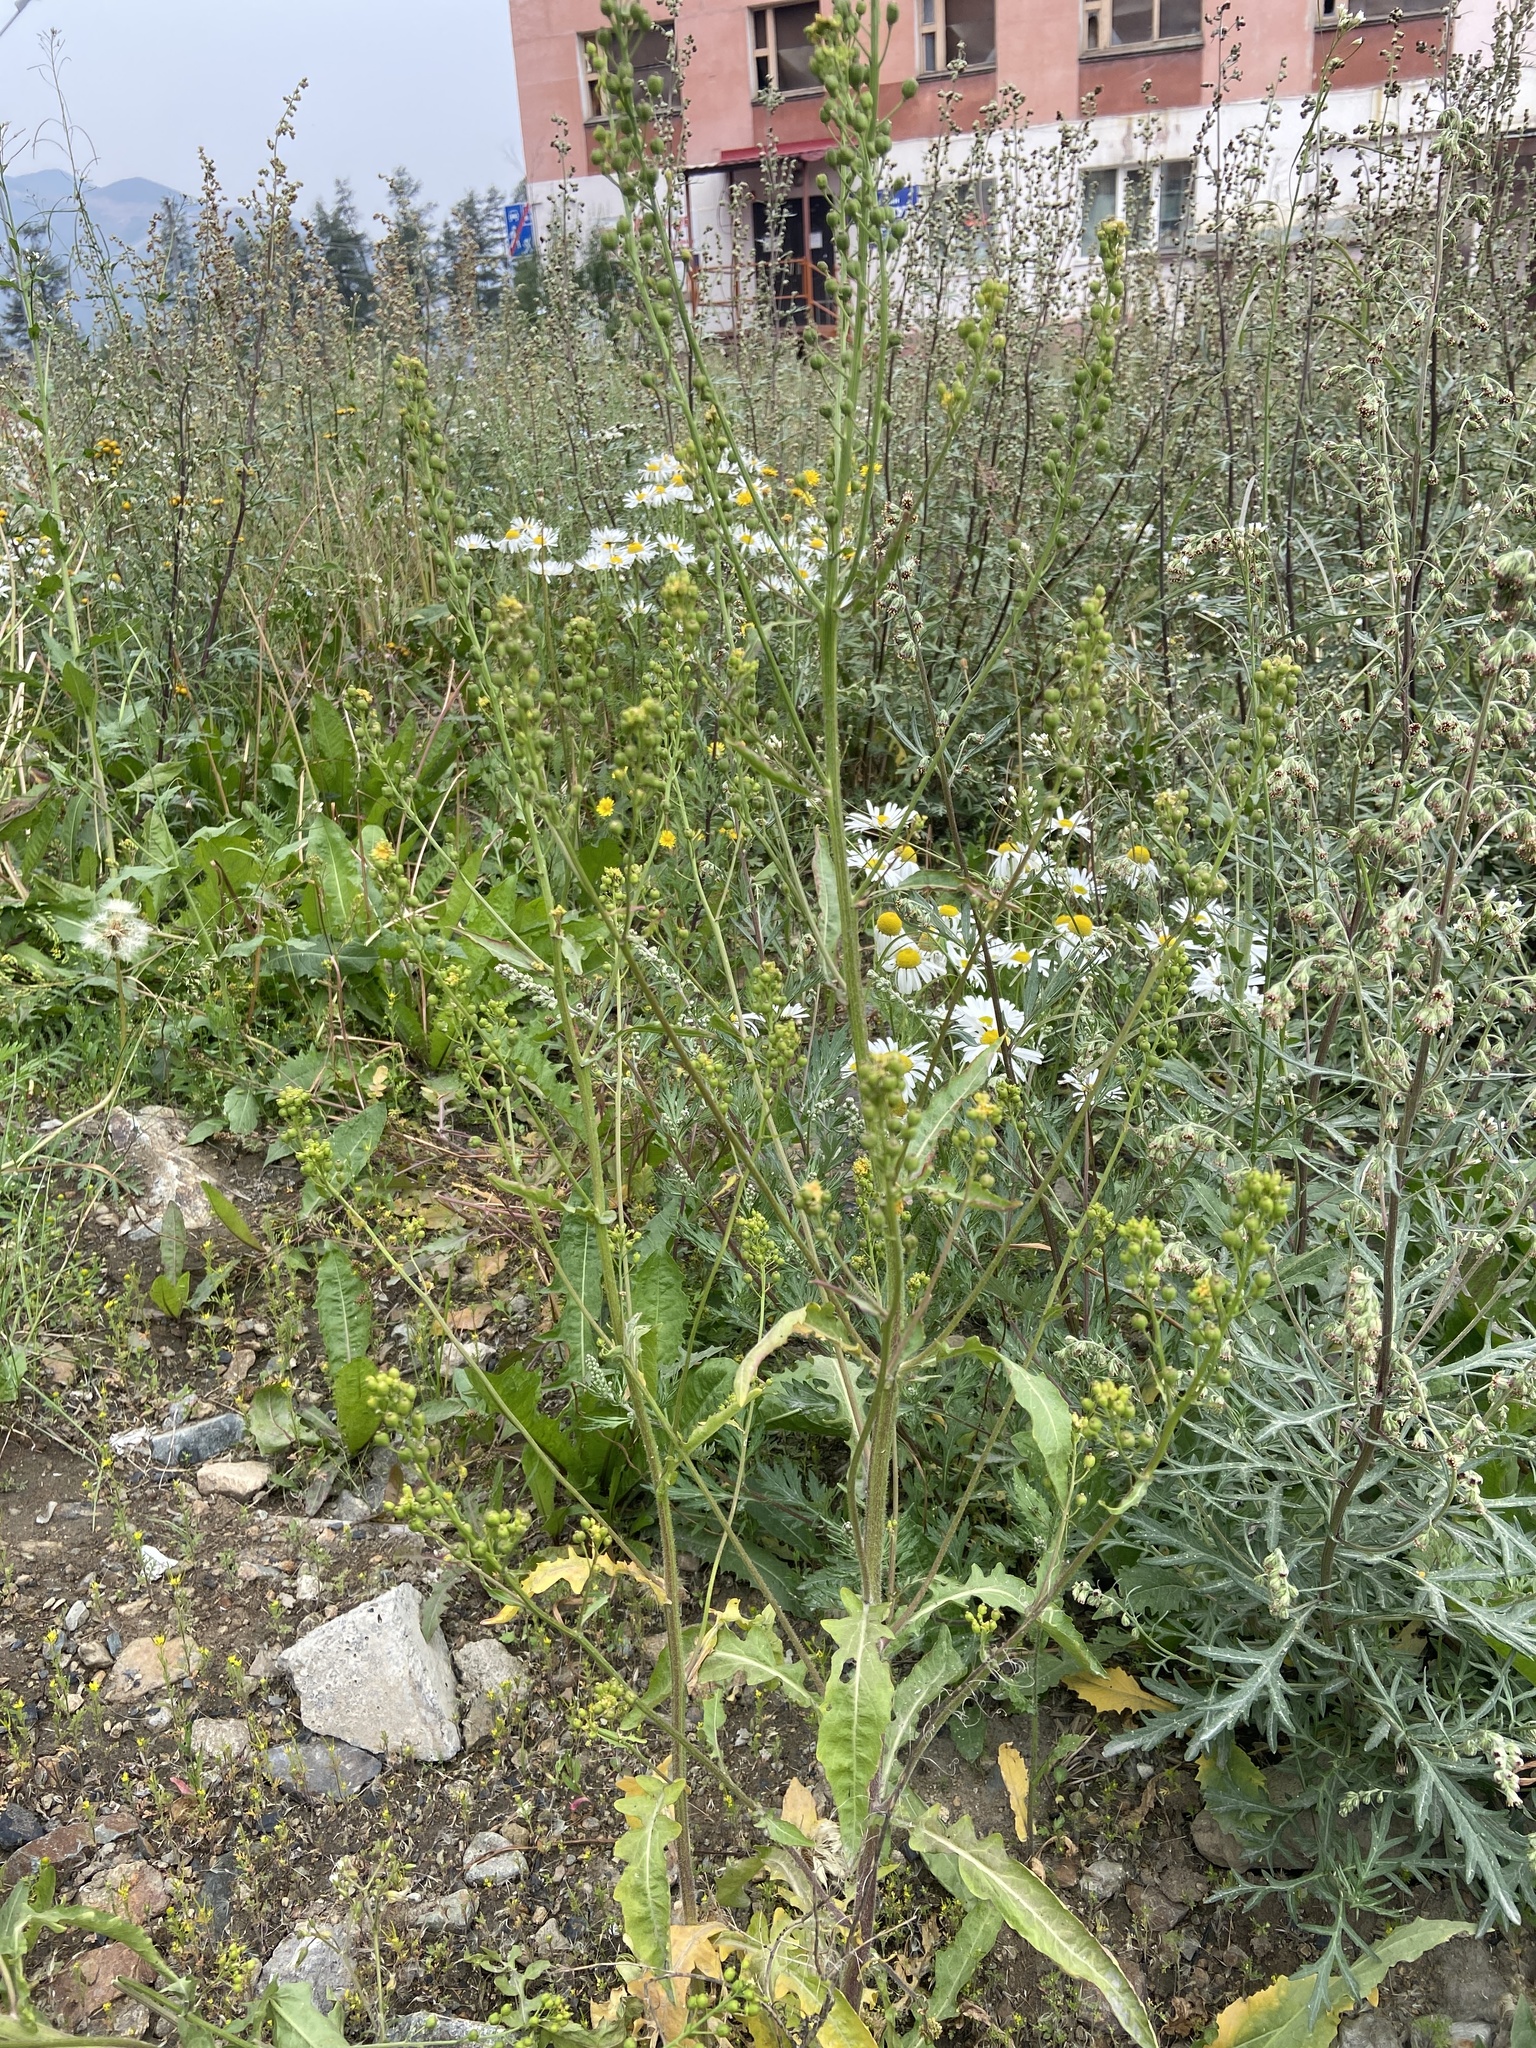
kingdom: Plantae
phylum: Tracheophyta
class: Magnoliopsida
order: Brassicales
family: Brassicaceae
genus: Rorippa
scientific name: Rorippa barbareifolia
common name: Hoary yellowcress
